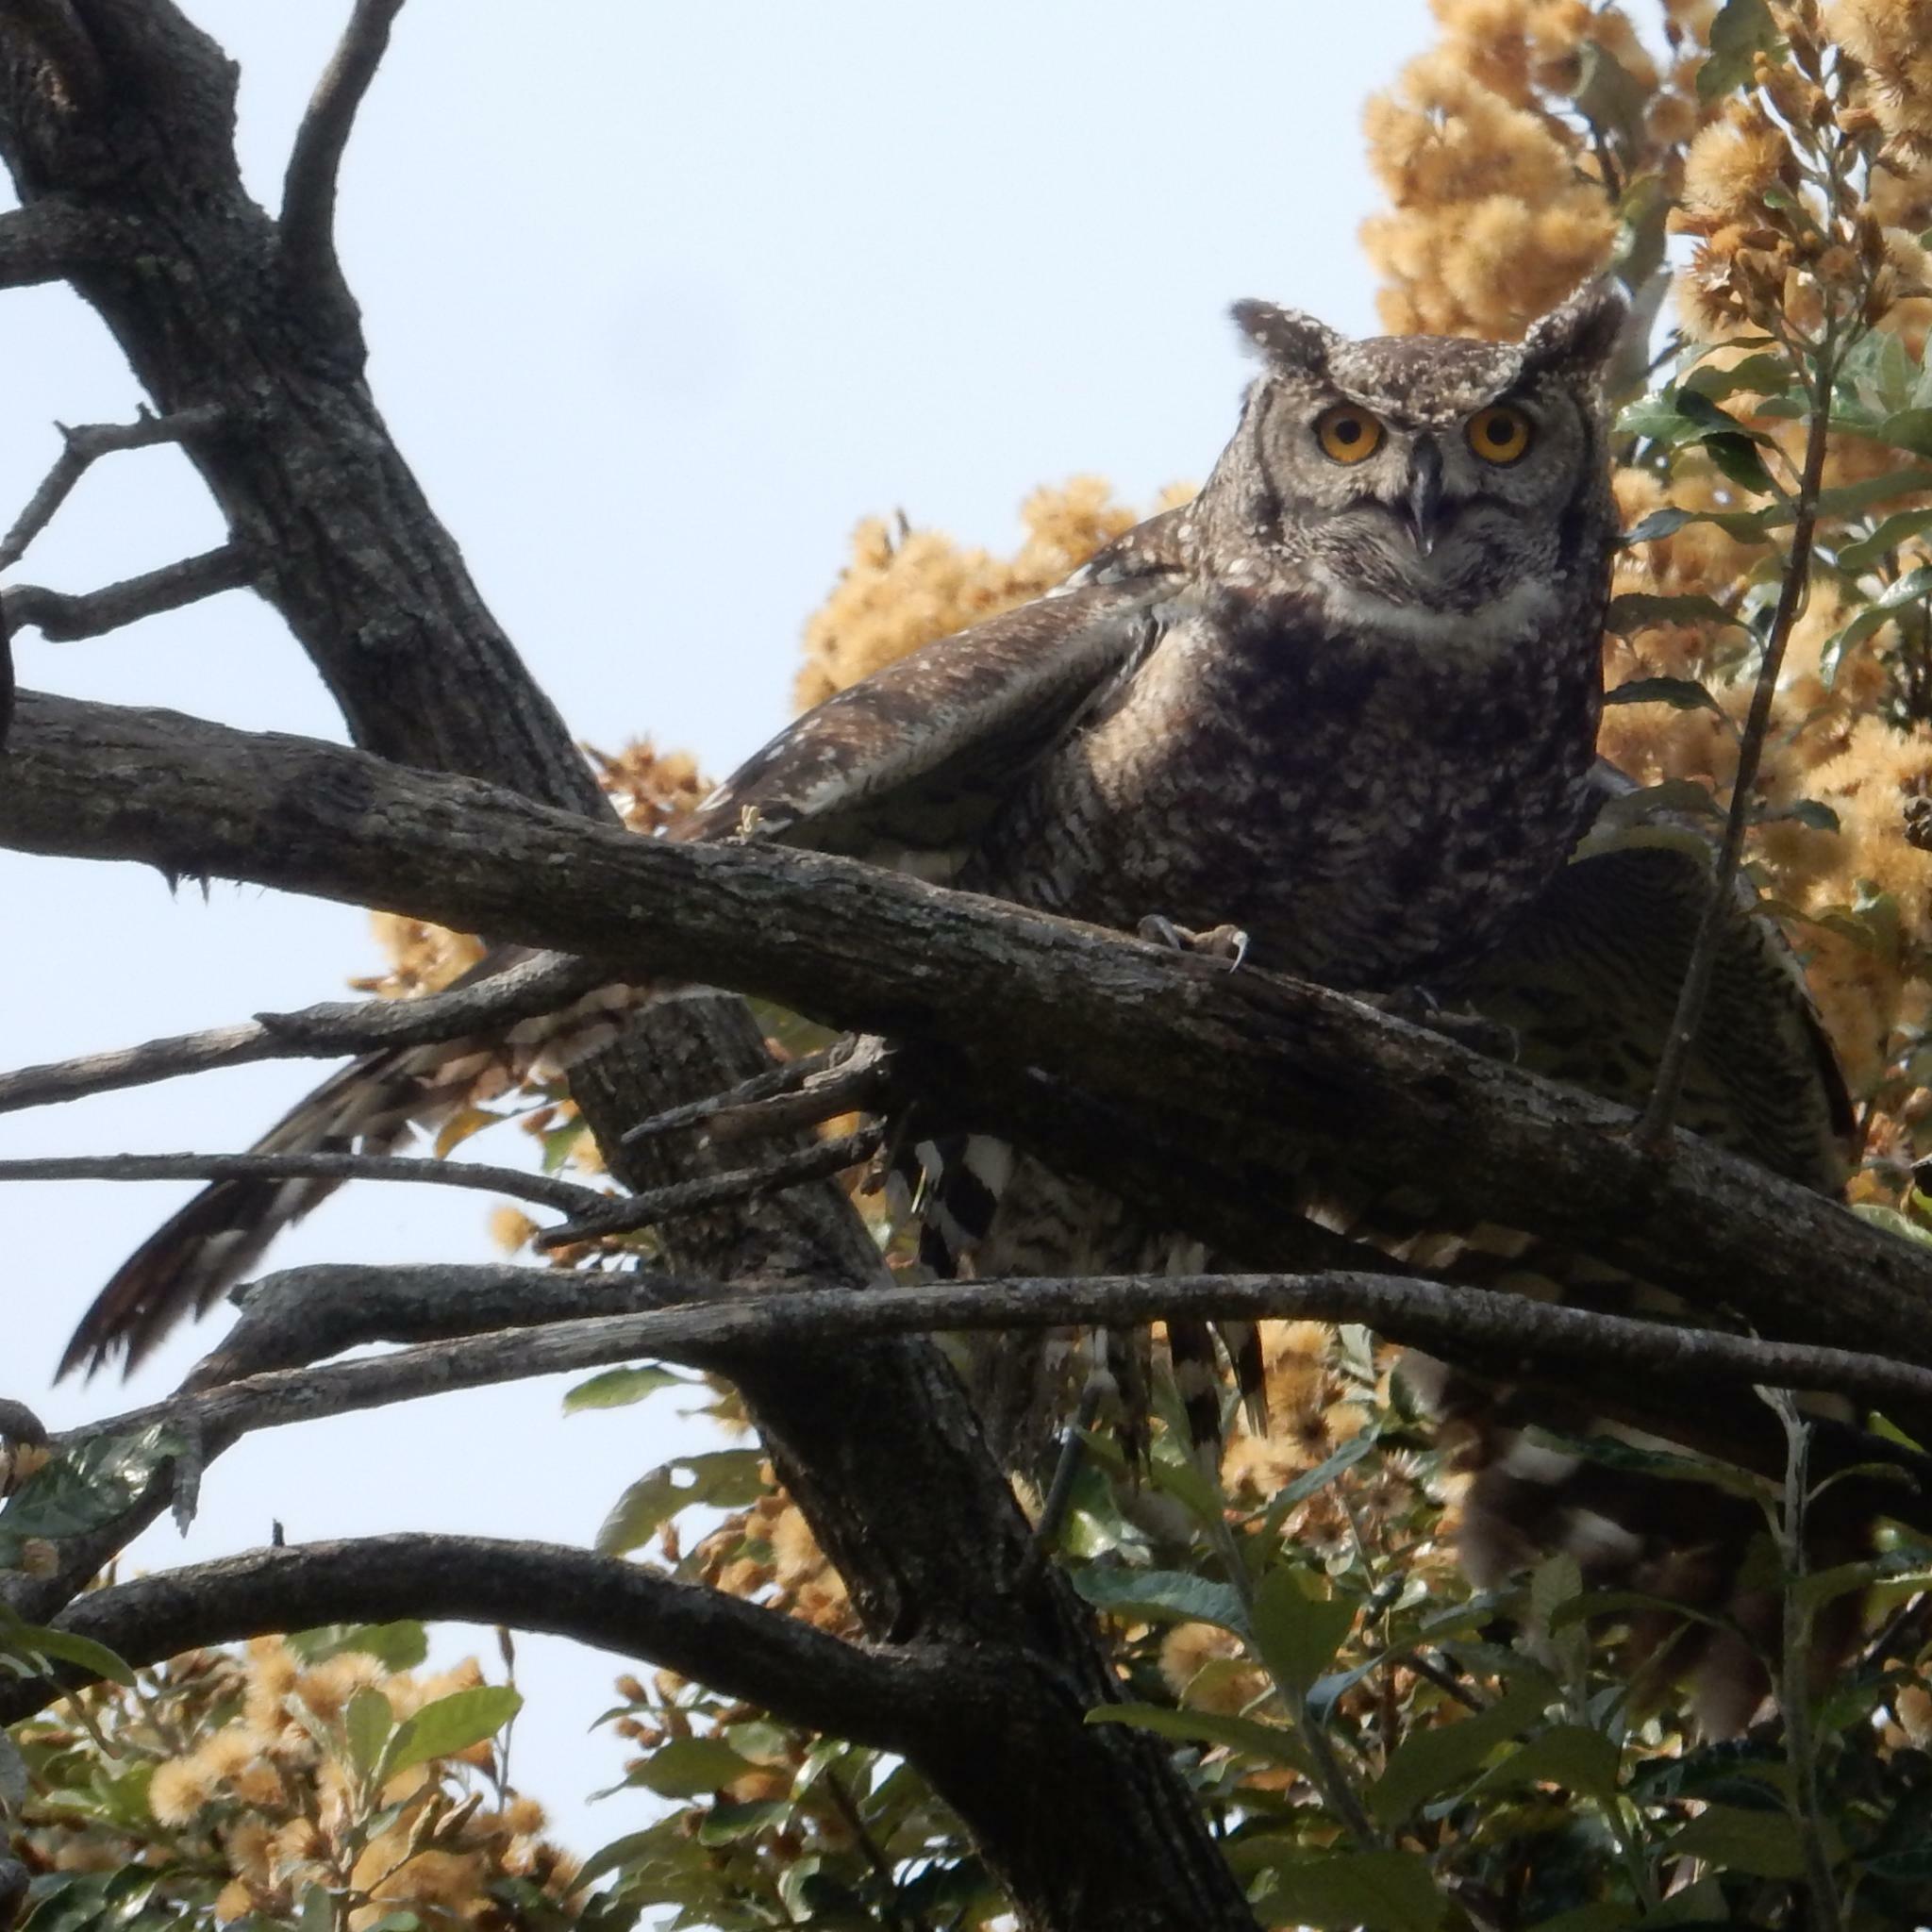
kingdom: Animalia
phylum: Chordata
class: Aves
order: Strigiformes
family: Strigidae
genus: Bubo
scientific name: Bubo africanus
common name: Spotted eagle-owl
